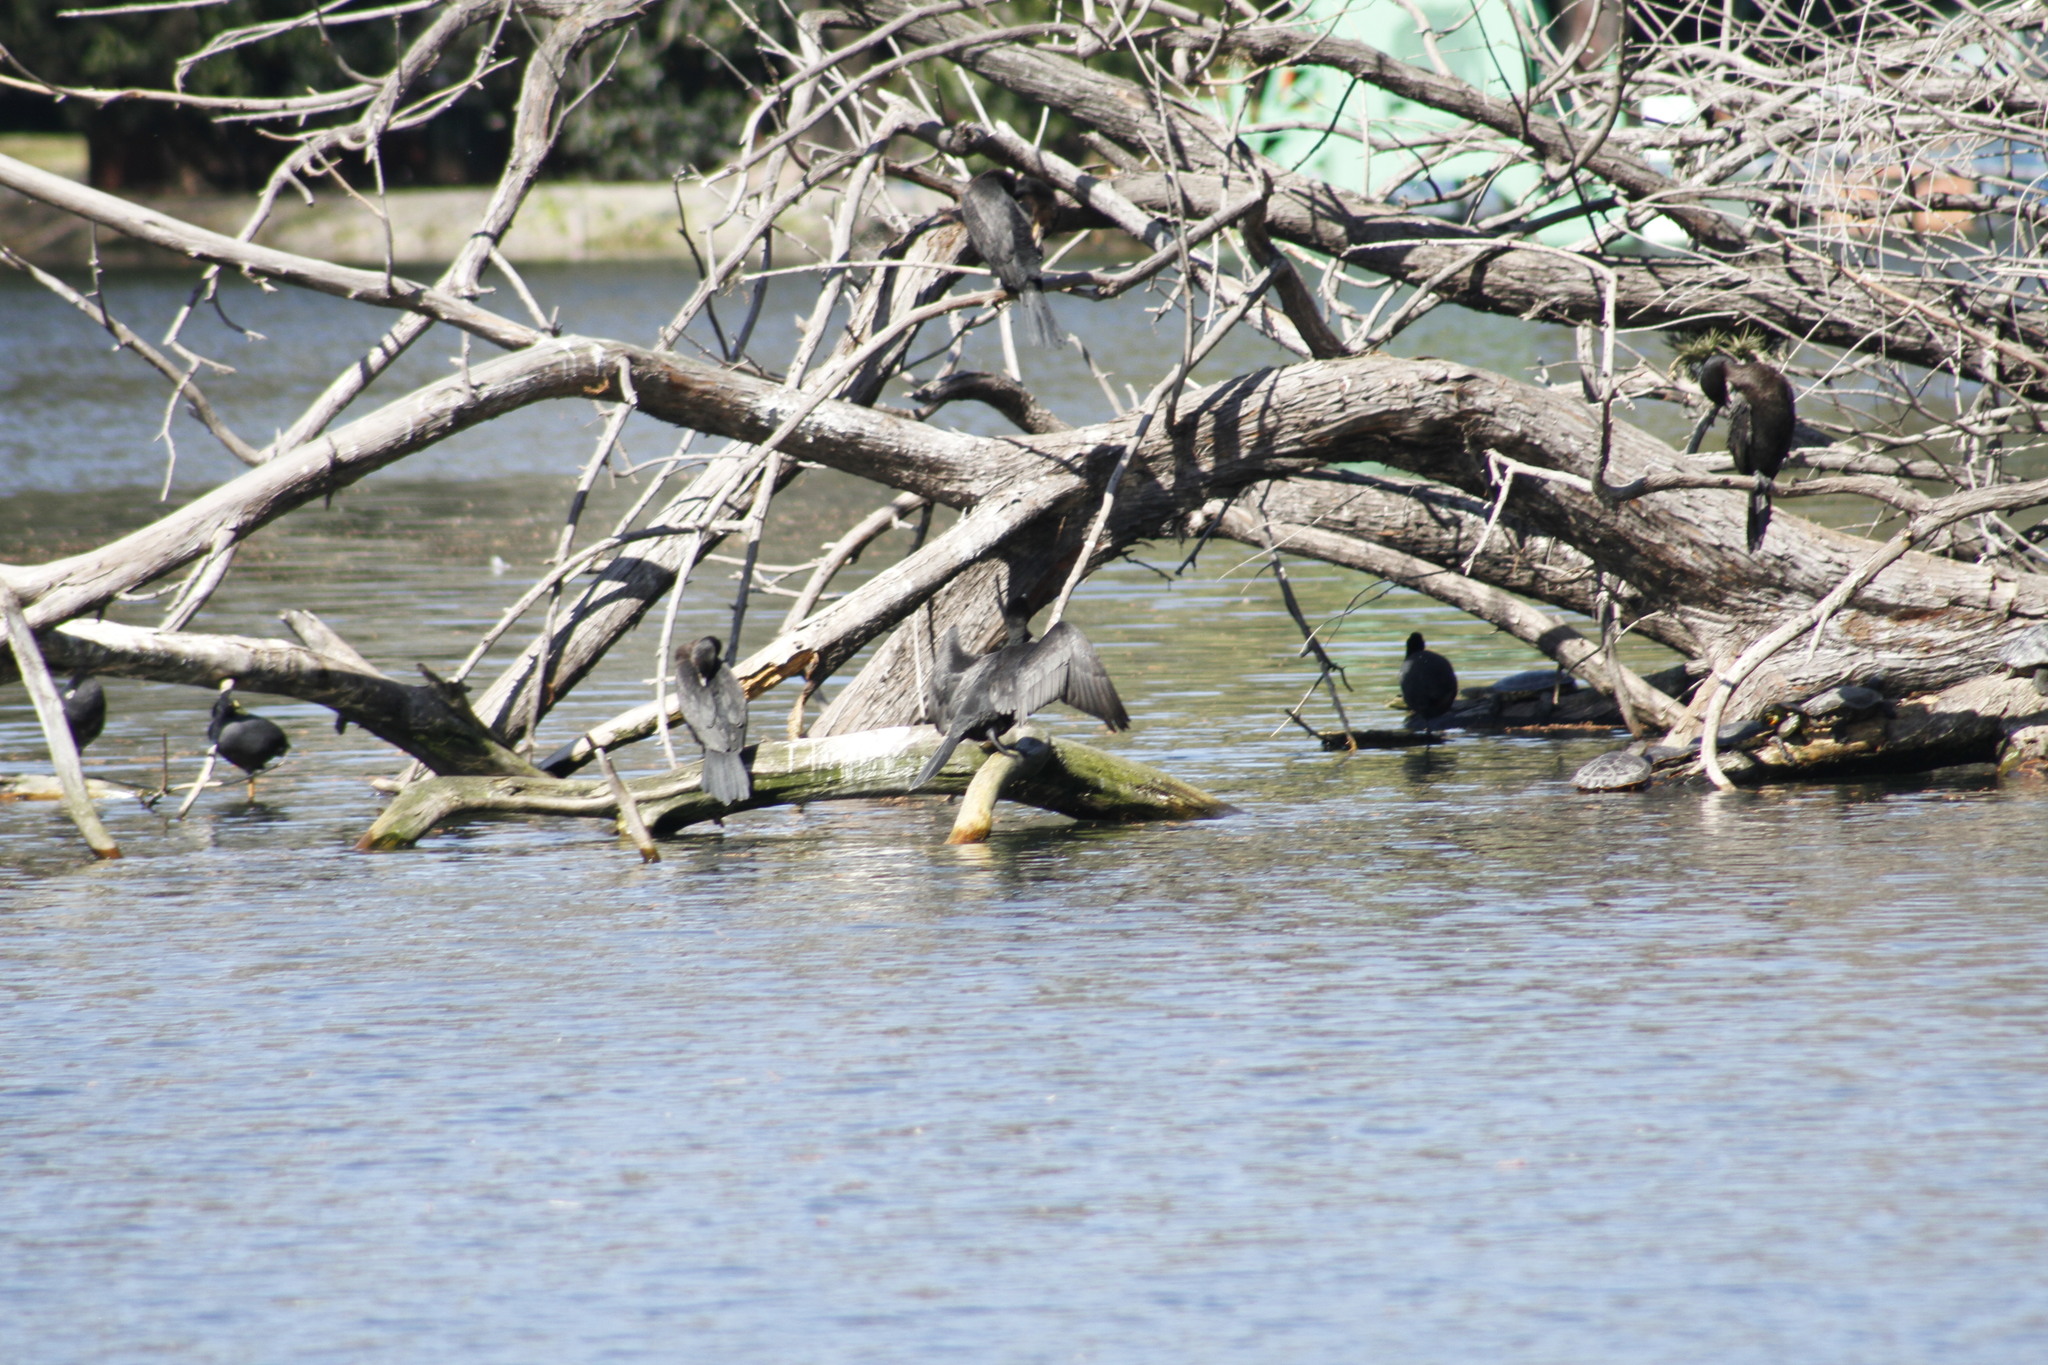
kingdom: Animalia
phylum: Chordata
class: Aves
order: Suliformes
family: Phalacrocoracidae
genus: Phalacrocorax
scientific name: Phalacrocorax brasilianus
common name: Neotropic cormorant
